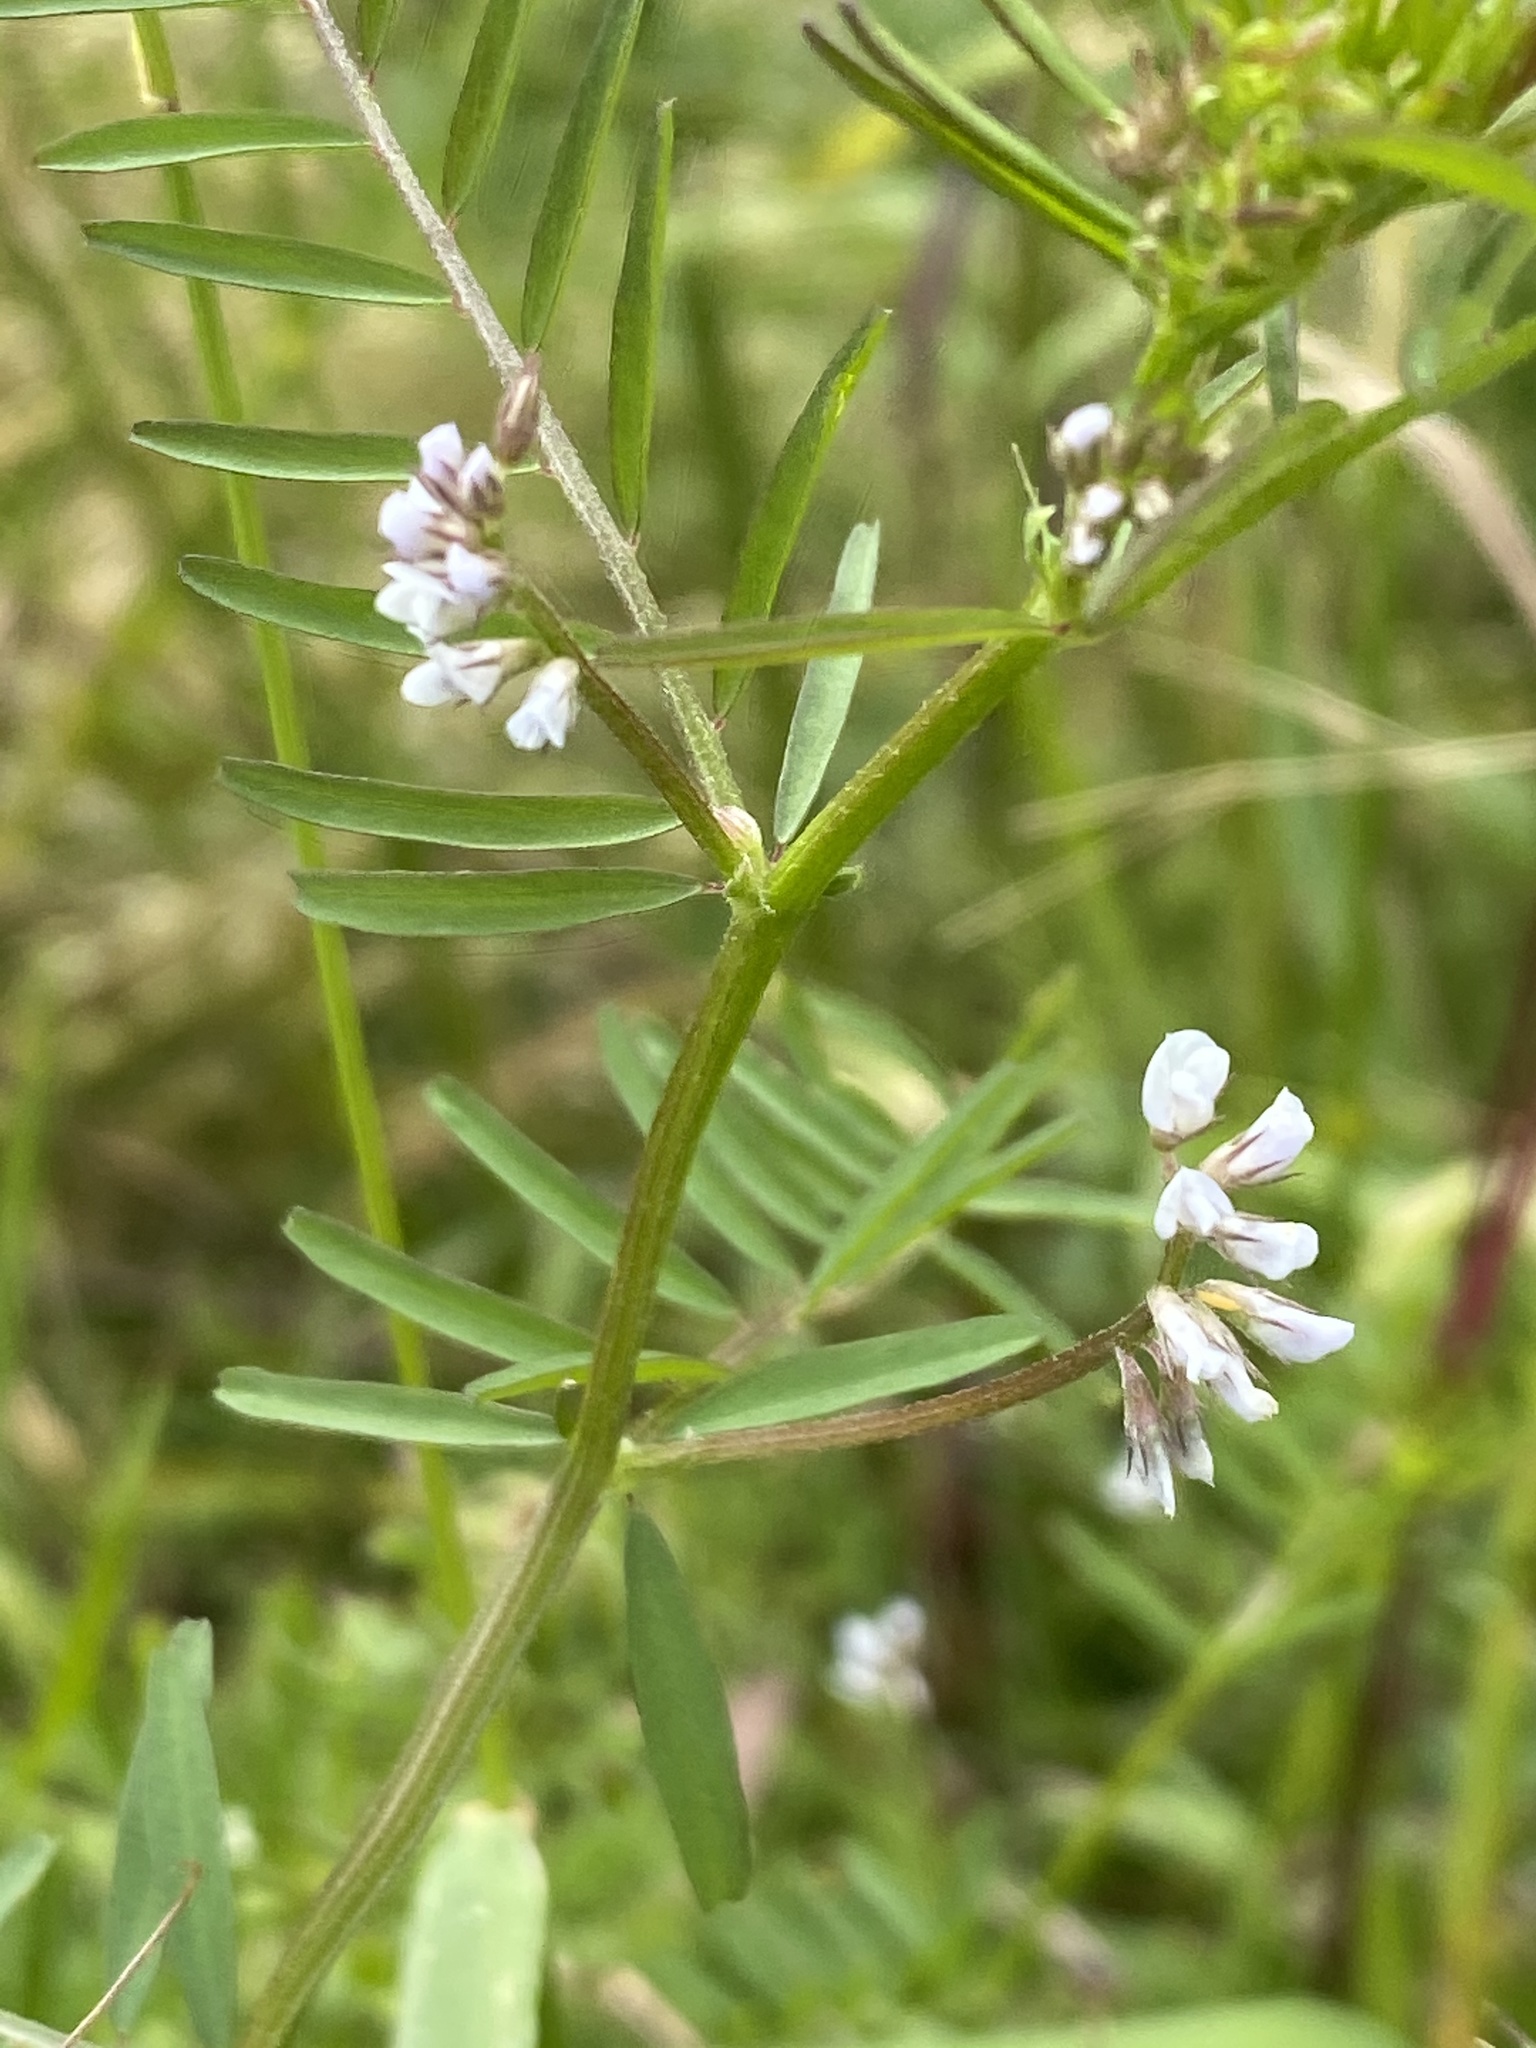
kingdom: Plantae
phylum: Tracheophyta
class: Magnoliopsida
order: Fabales
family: Fabaceae
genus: Vicia
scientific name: Vicia hirsuta
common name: Tiny vetch
